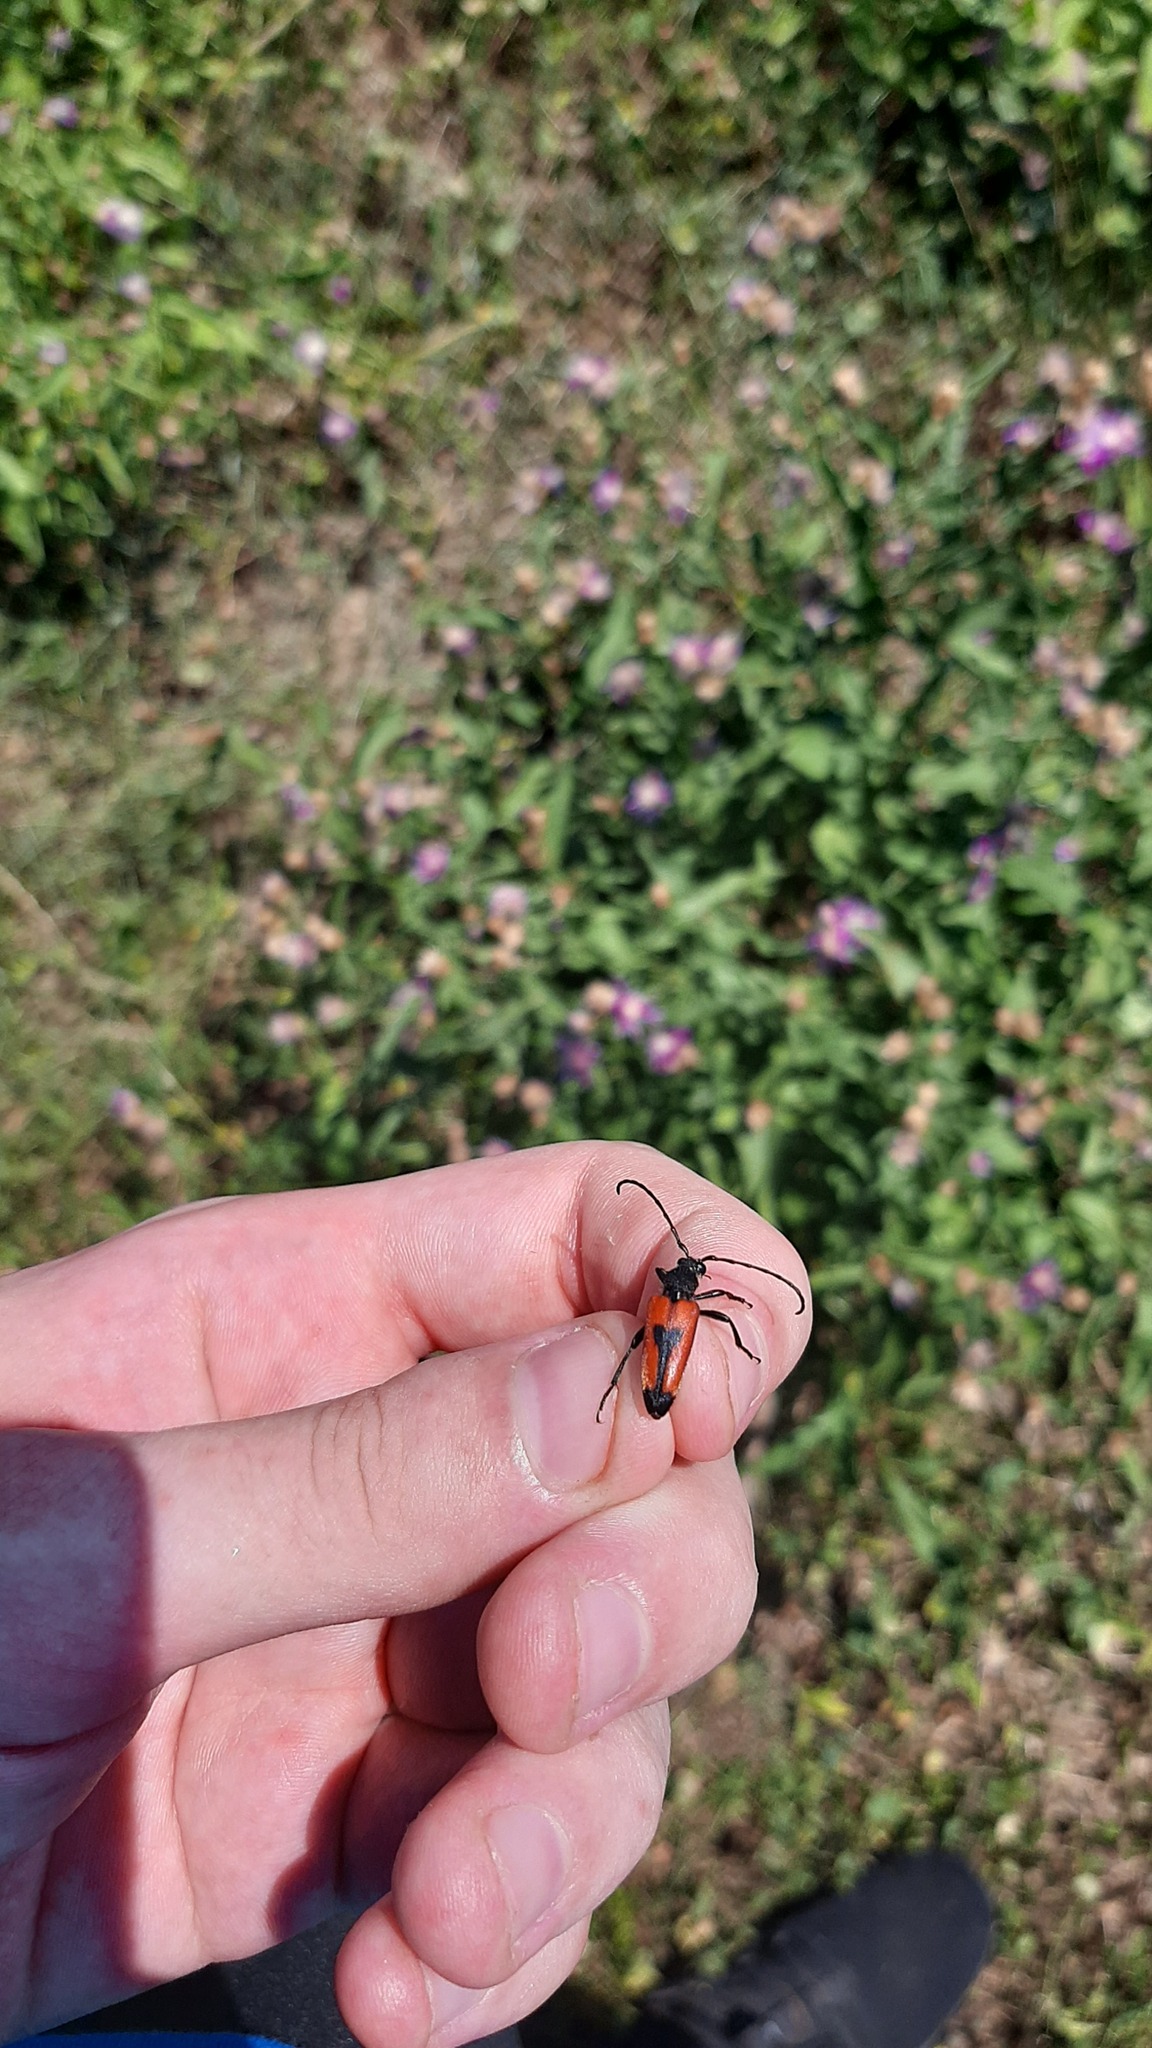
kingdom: Animalia
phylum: Arthropoda
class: Insecta
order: Coleoptera
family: Cerambycidae
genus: Stictoleptura
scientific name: Stictoleptura cordigera
